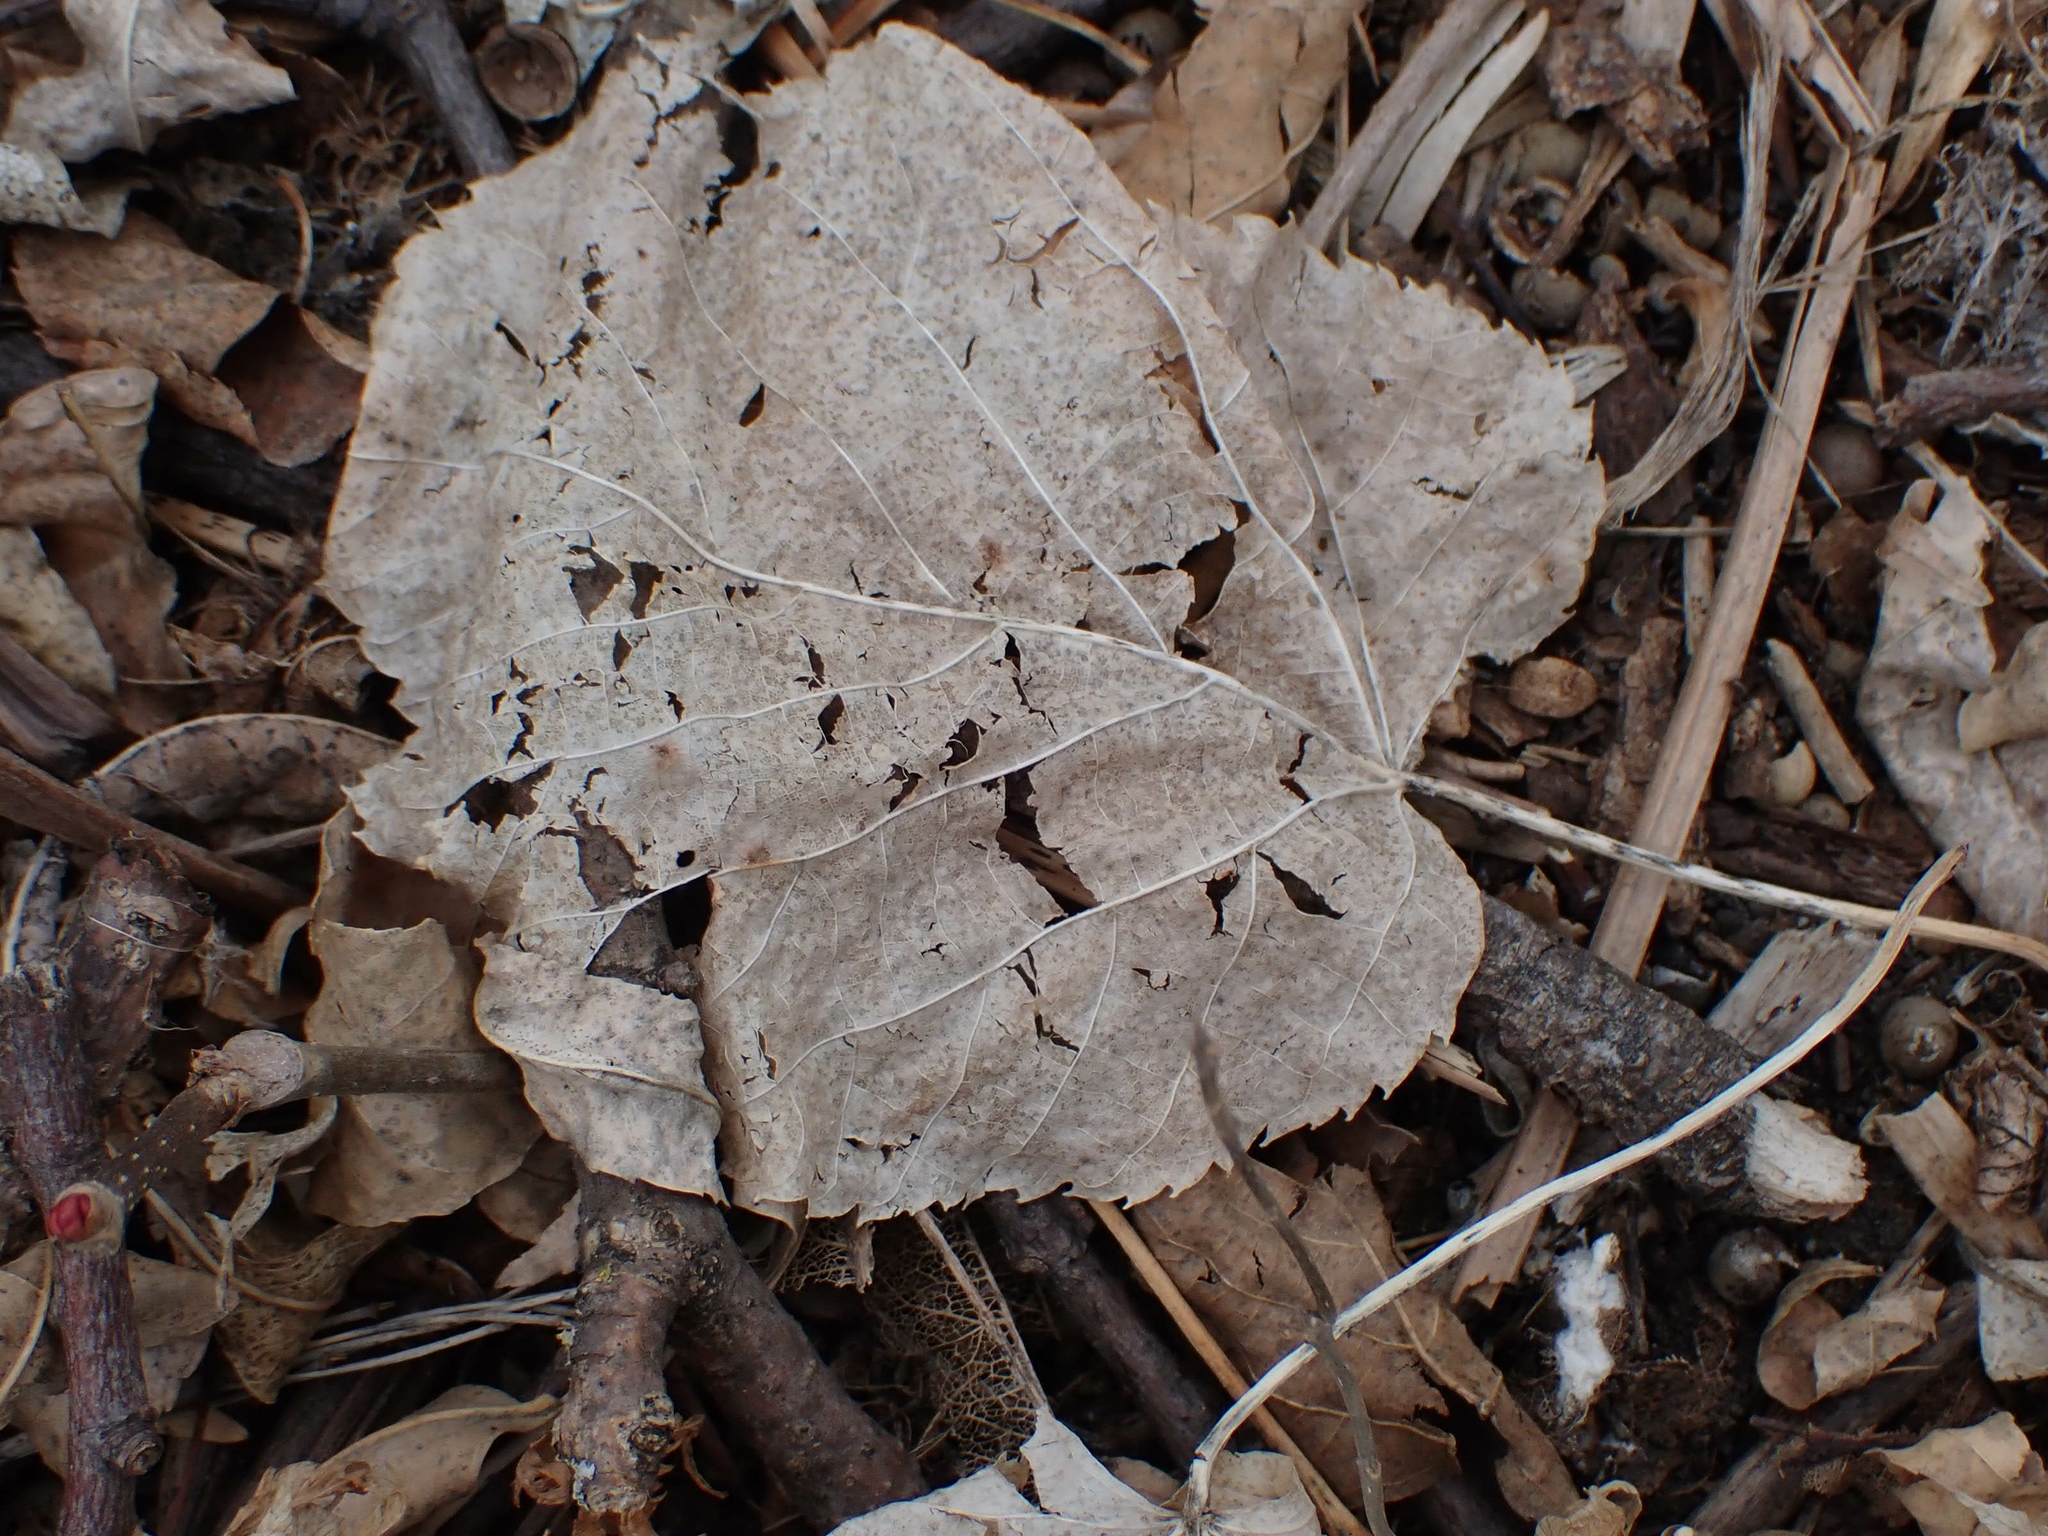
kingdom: Plantae
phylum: Tracheophyta
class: Magnoliopsida
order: Malvales
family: Malvaceae
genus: Tilia
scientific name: Tilia americana
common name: Basswood
